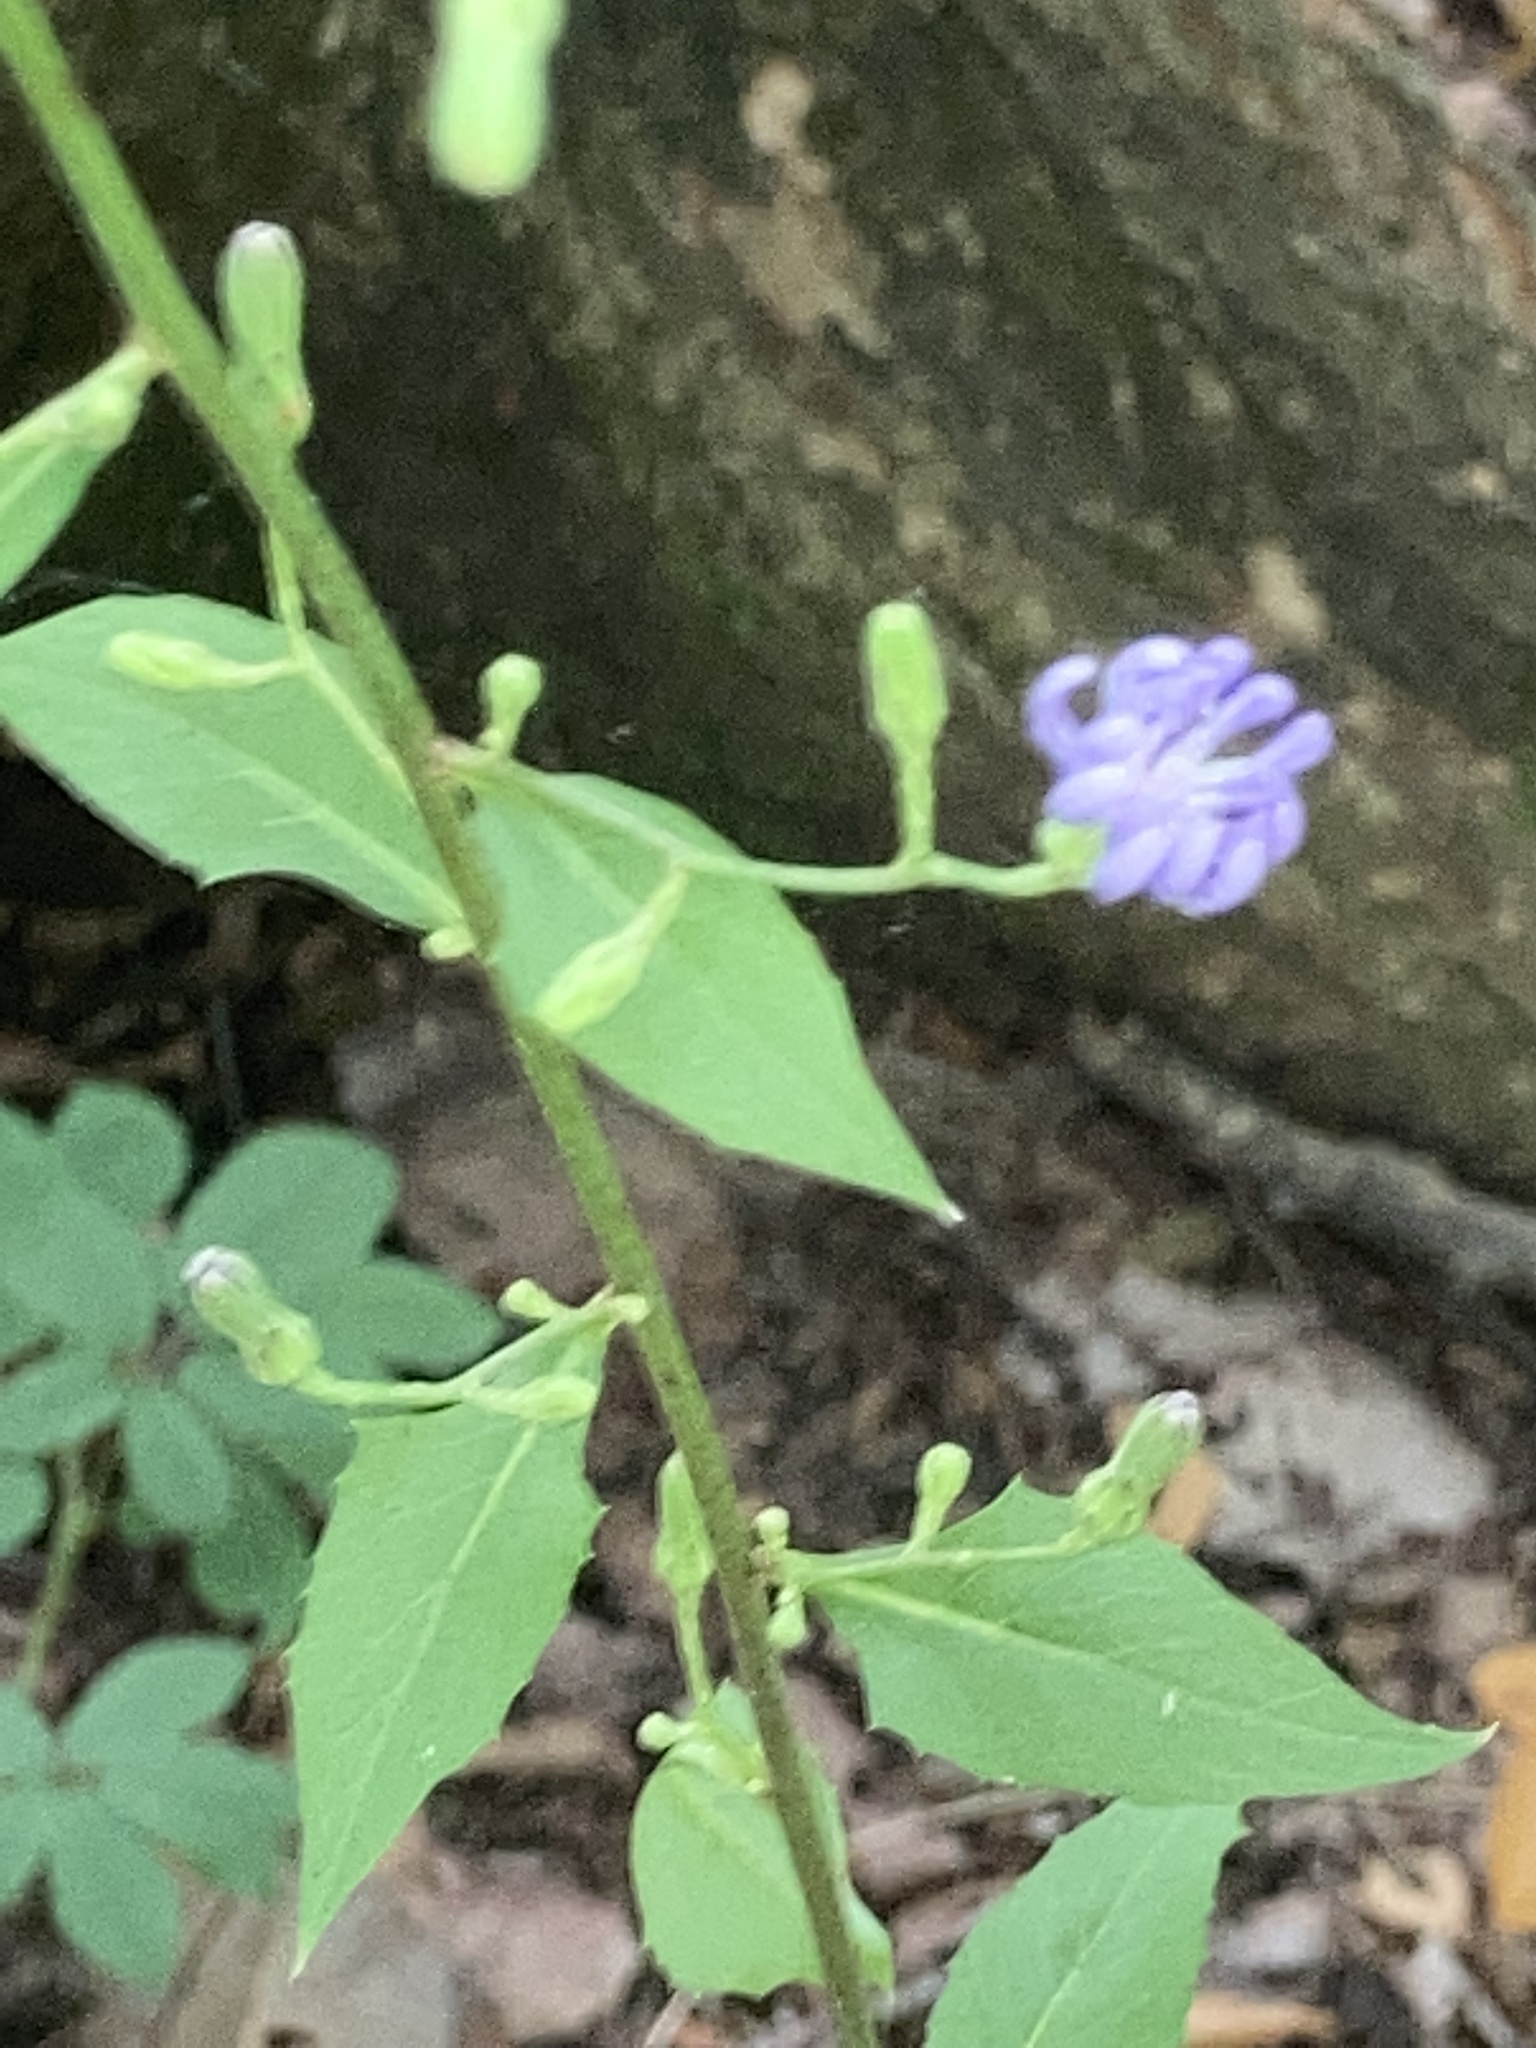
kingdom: Plantae
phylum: Tracheophyta
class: Magnoliopsida
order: Asterales
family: Asteraceae
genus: Lactuca
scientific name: Lactuca floridana
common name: Woodland lettuce
